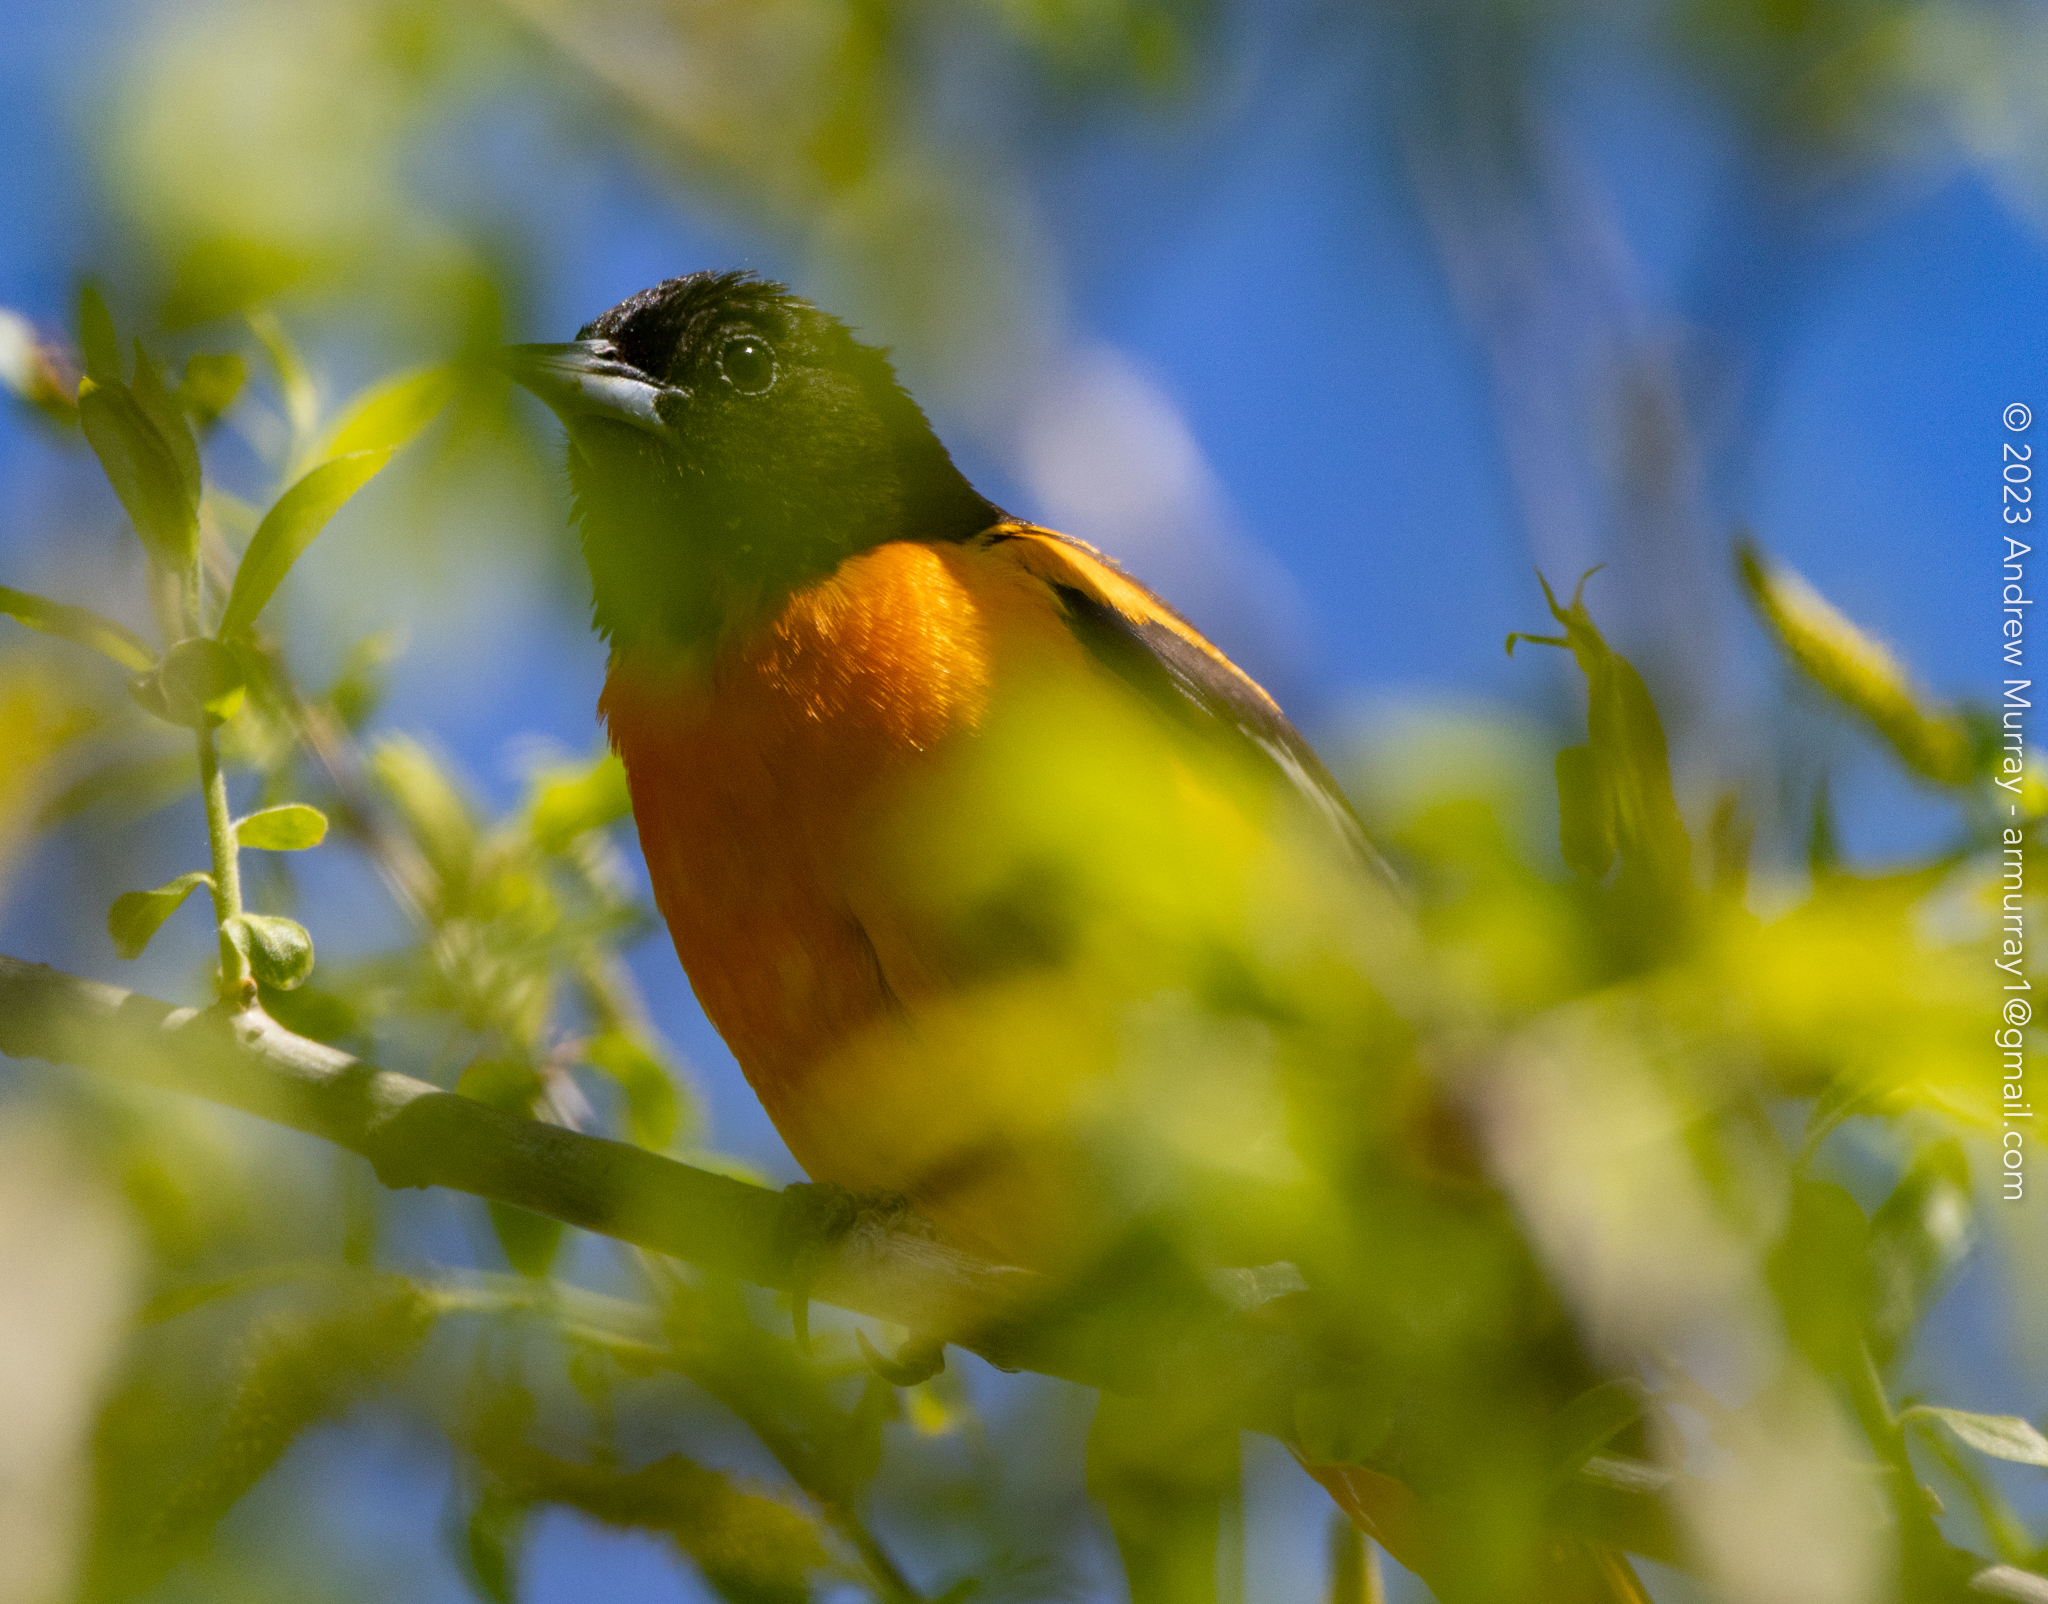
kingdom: Animalia
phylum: Chordata
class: Aves
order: Passeriformes
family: Icteridae
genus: Icterus
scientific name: Icterus galbula
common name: Baltimore oriole
